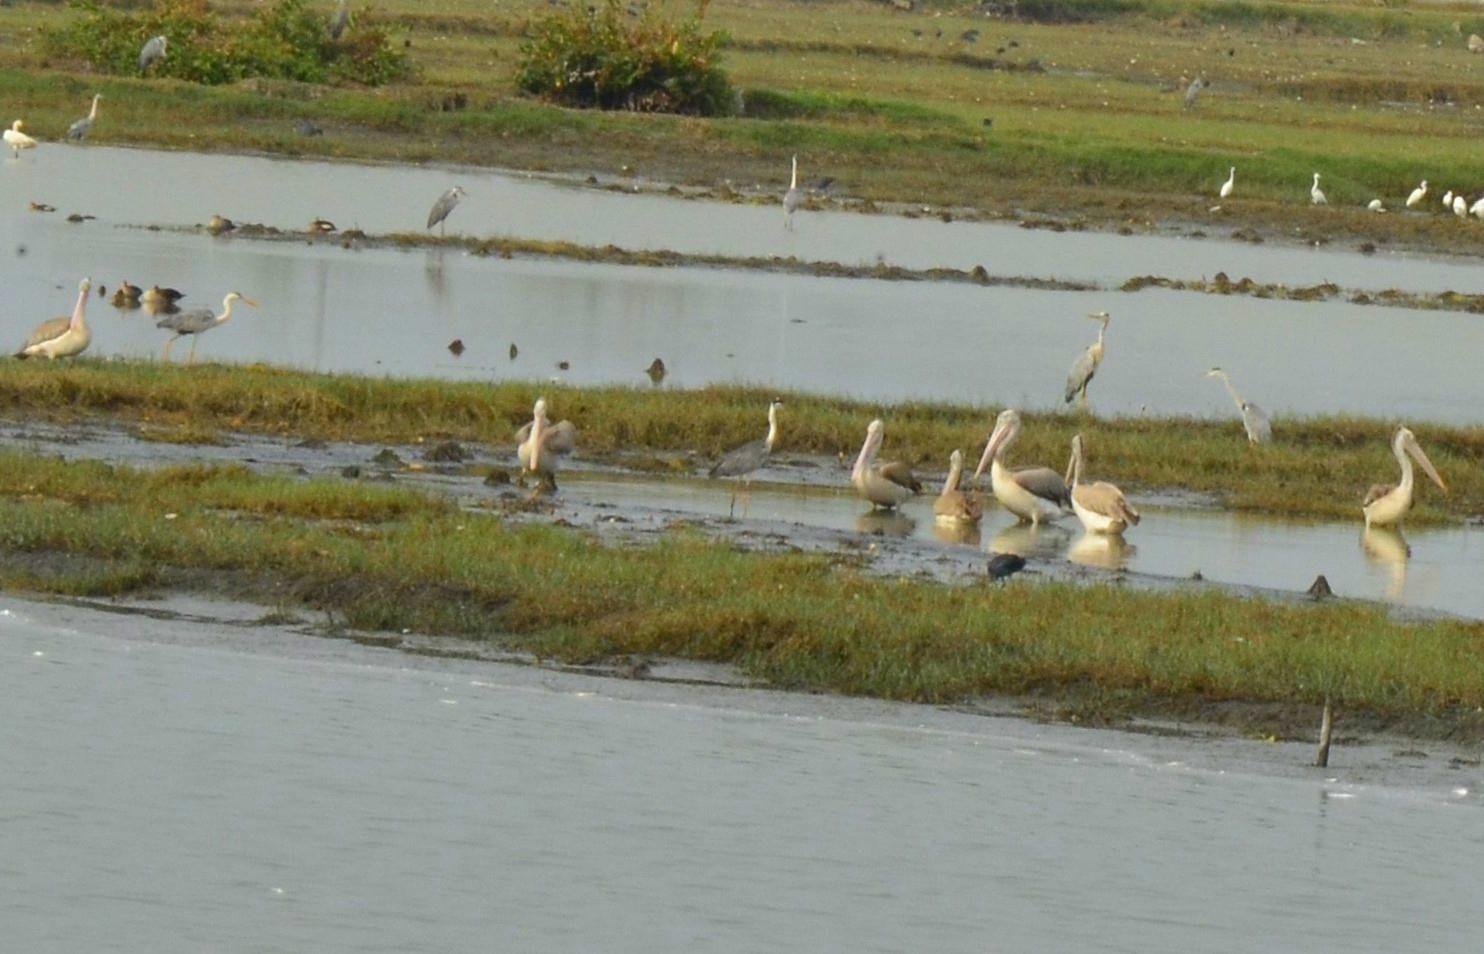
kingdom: Animalia
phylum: Chordata
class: Aves
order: Pelecaniformes
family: Pelecanidae
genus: Pelecanus
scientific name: Pelecanus philippensis
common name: Spot-billed pelican
